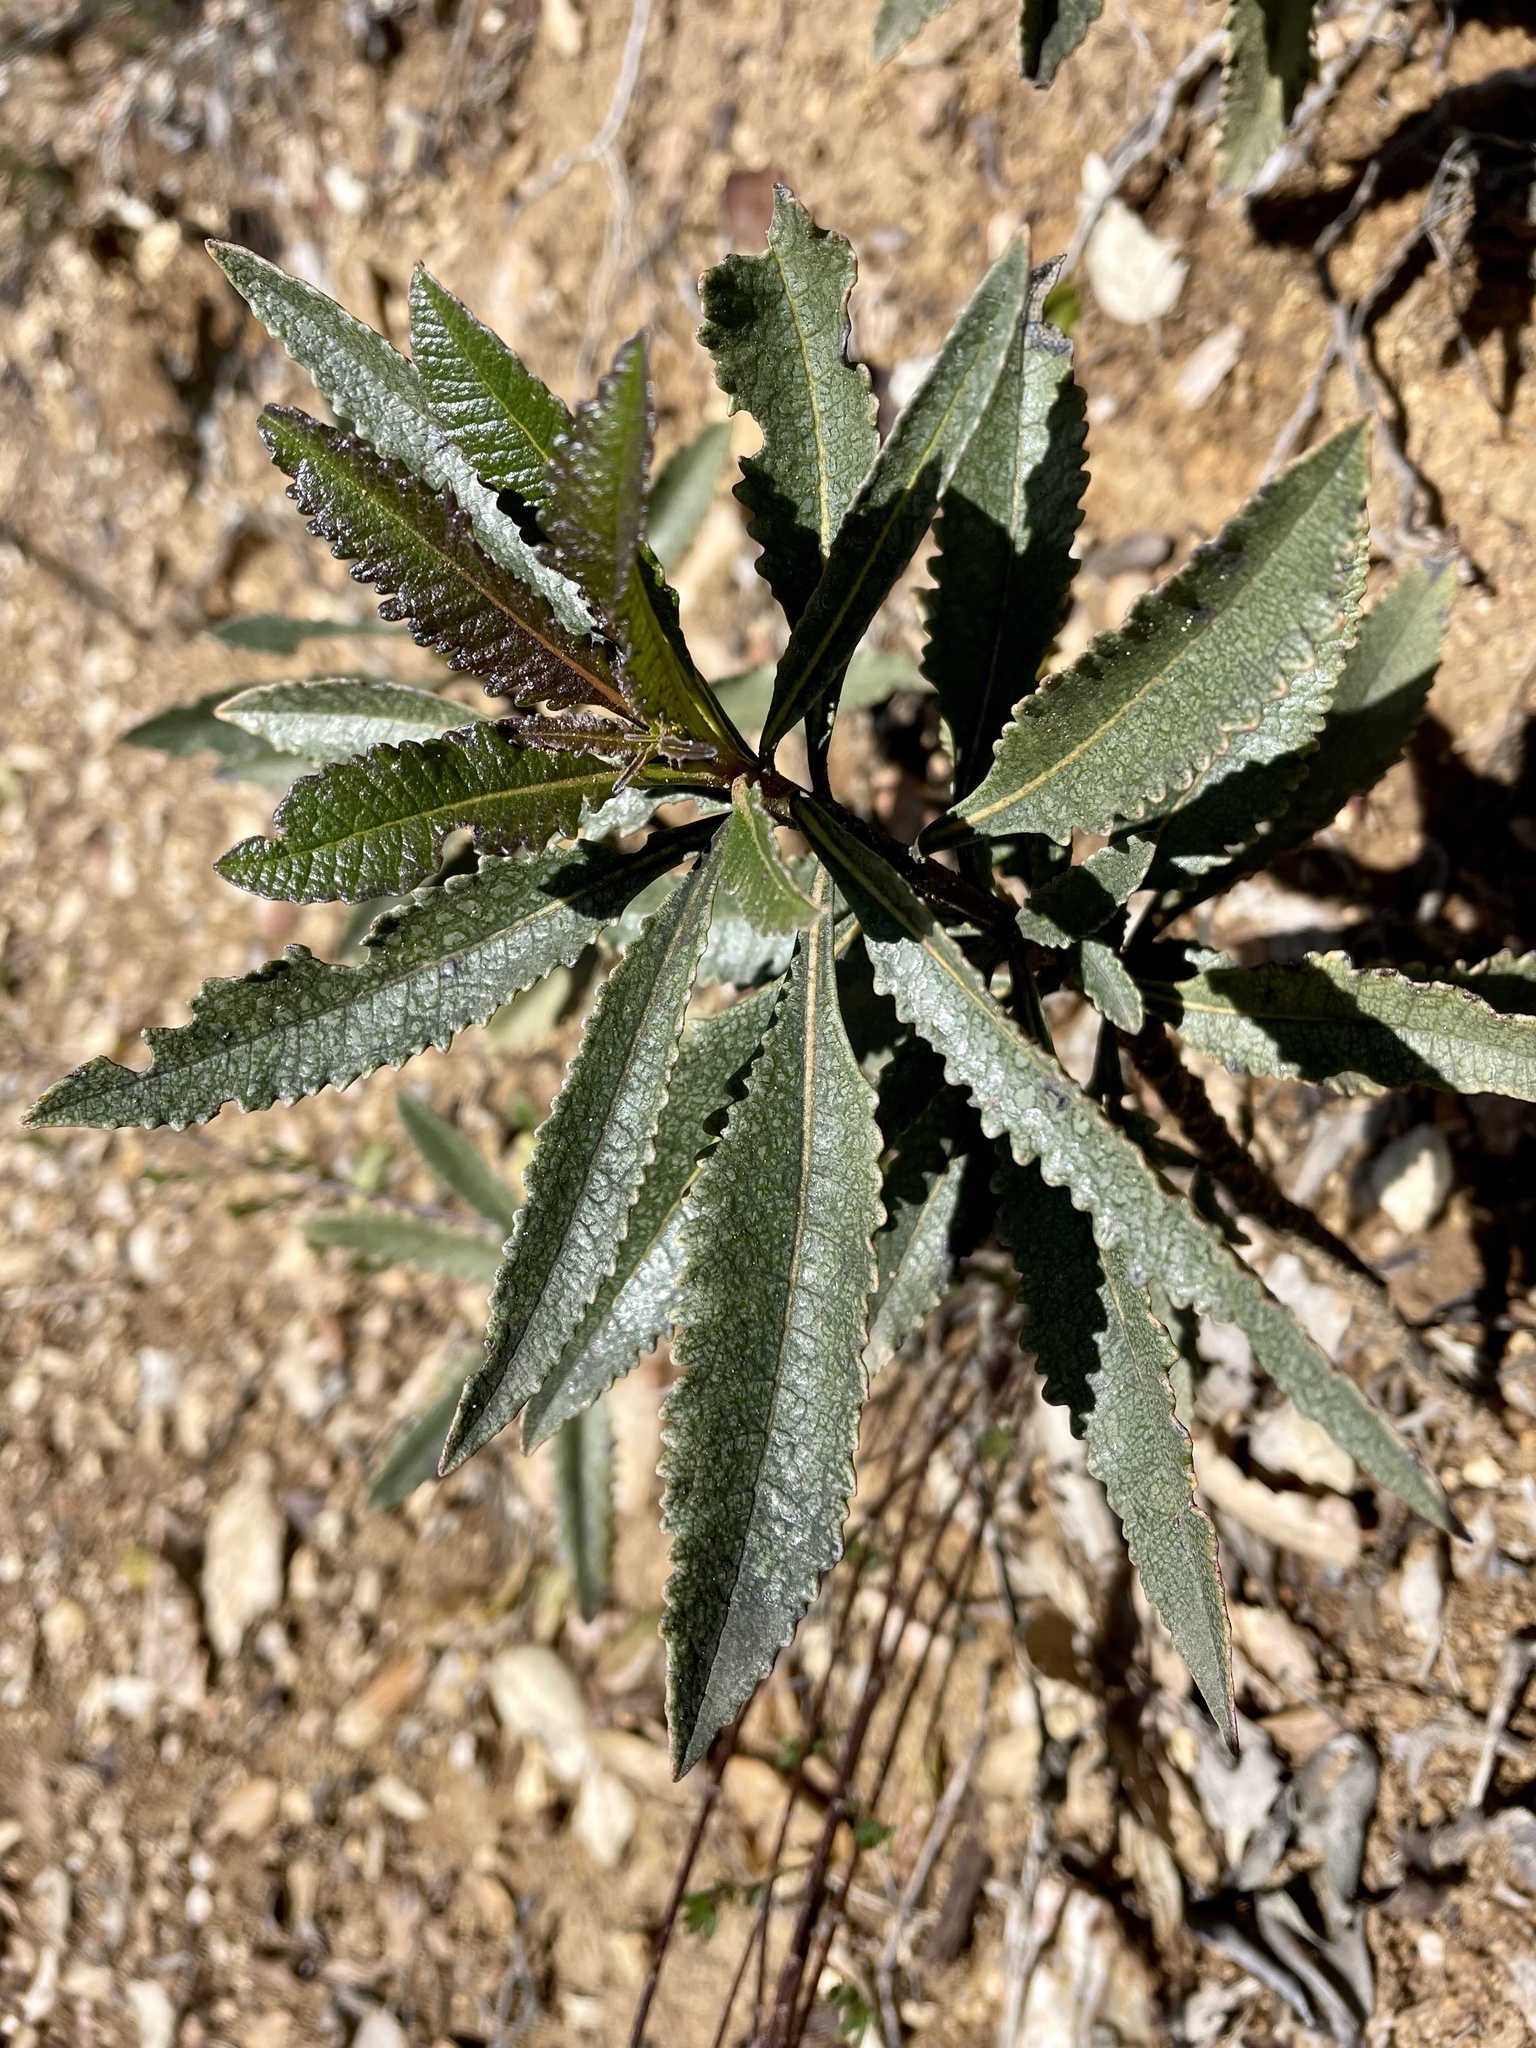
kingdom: Plantae
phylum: Tracheophyta
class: Magnoliopsida
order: Boraginales
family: Namaceae
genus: Eriodictyon
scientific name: Eriodictyon californicum
